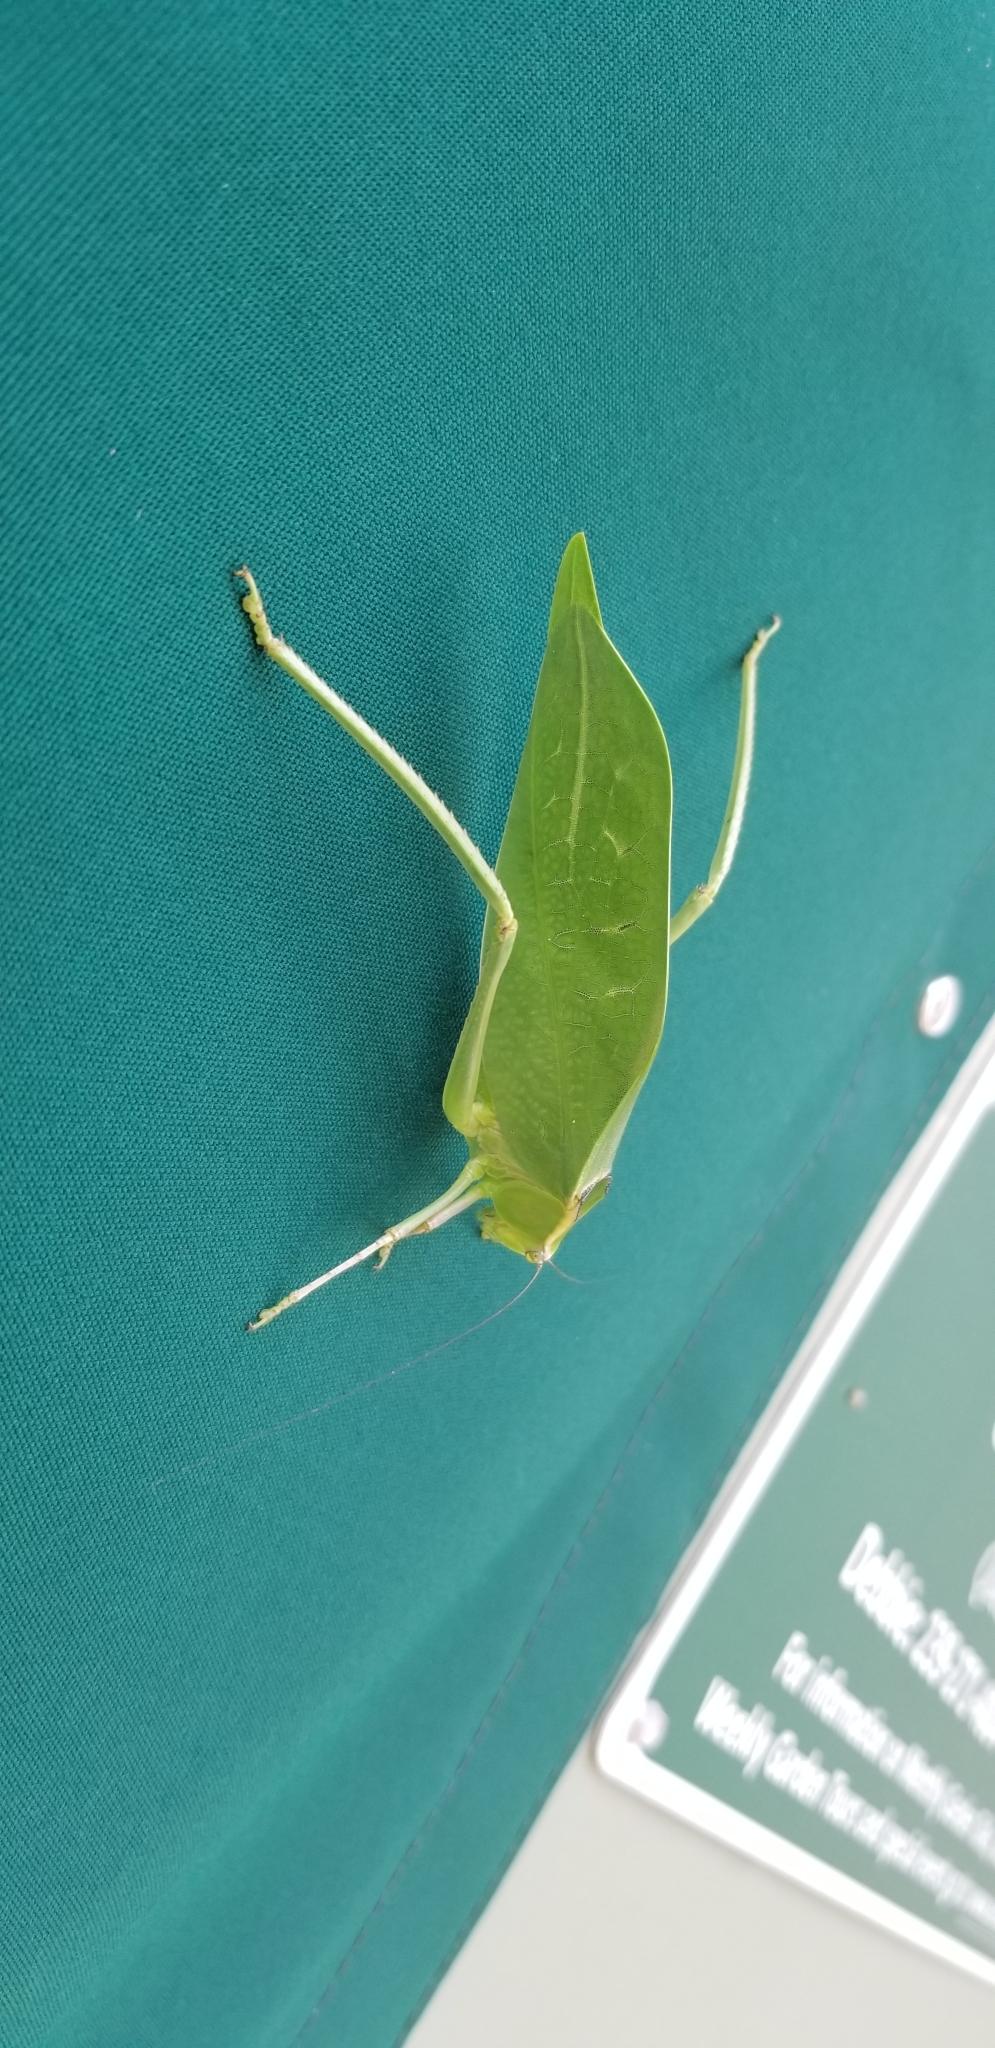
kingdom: Animalia
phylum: Arthropoda
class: Insecta
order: Orthoptera
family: Tettigoniidae
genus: Stilpnochlora
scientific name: Stilpnochlora couloniana
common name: Giant katydid
